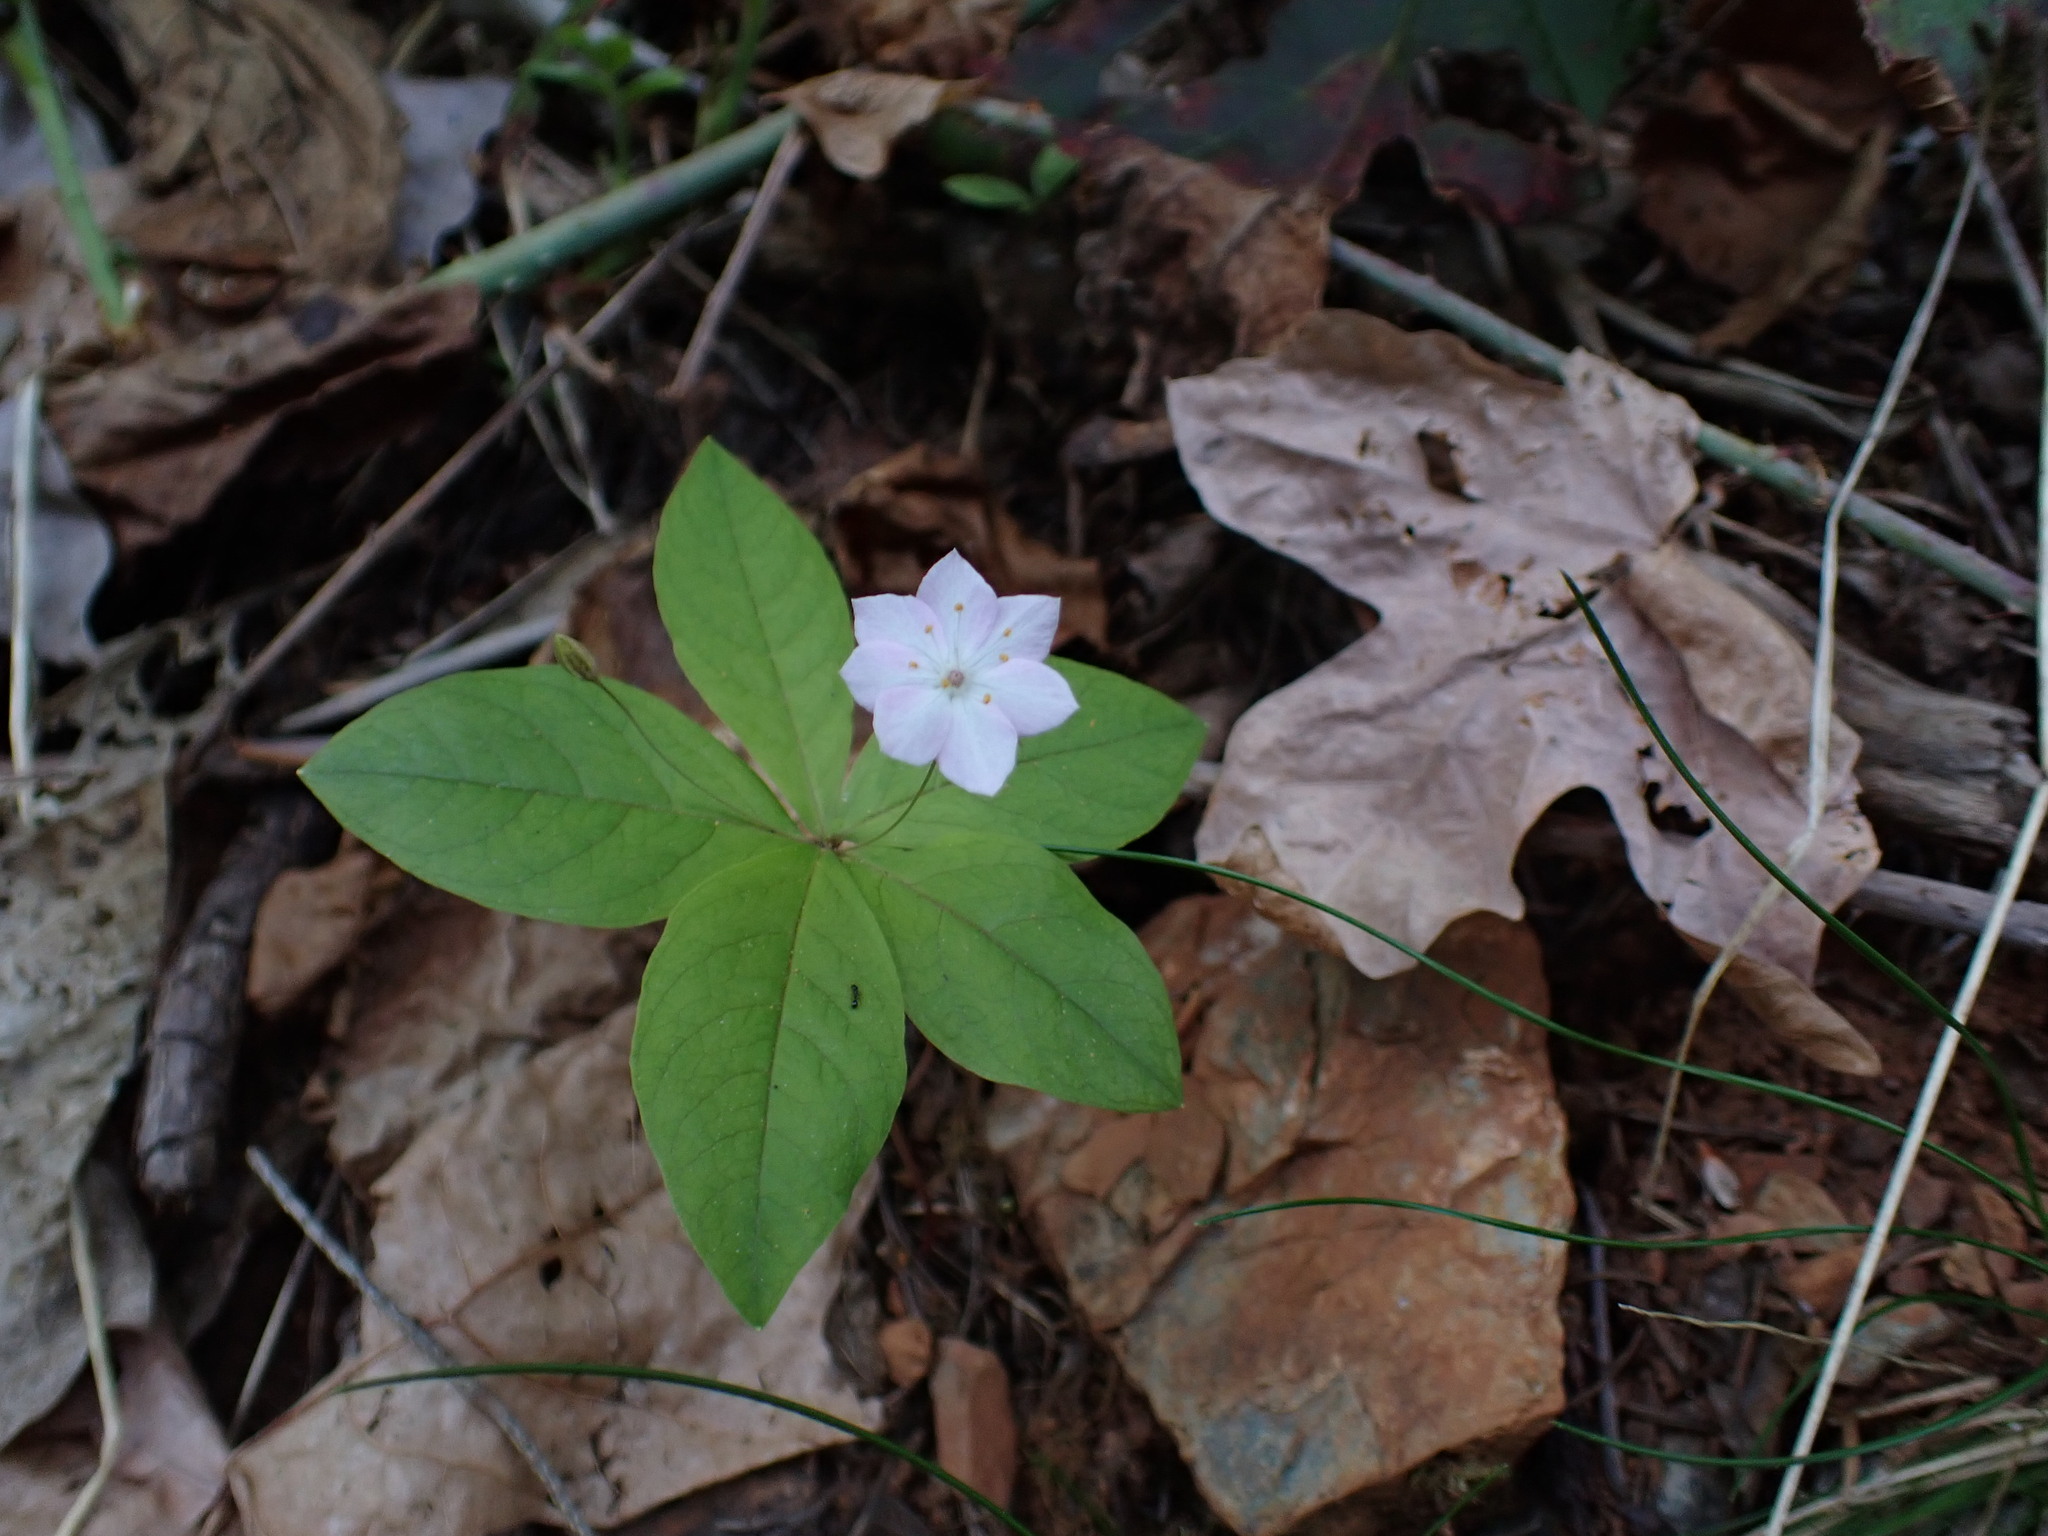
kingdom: Plantae
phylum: Tracheophyta
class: Magnoliopsida
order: Ericales
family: Primulaceae
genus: Lysimachia
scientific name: Lysimachia latifolia
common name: Pacific starflower
